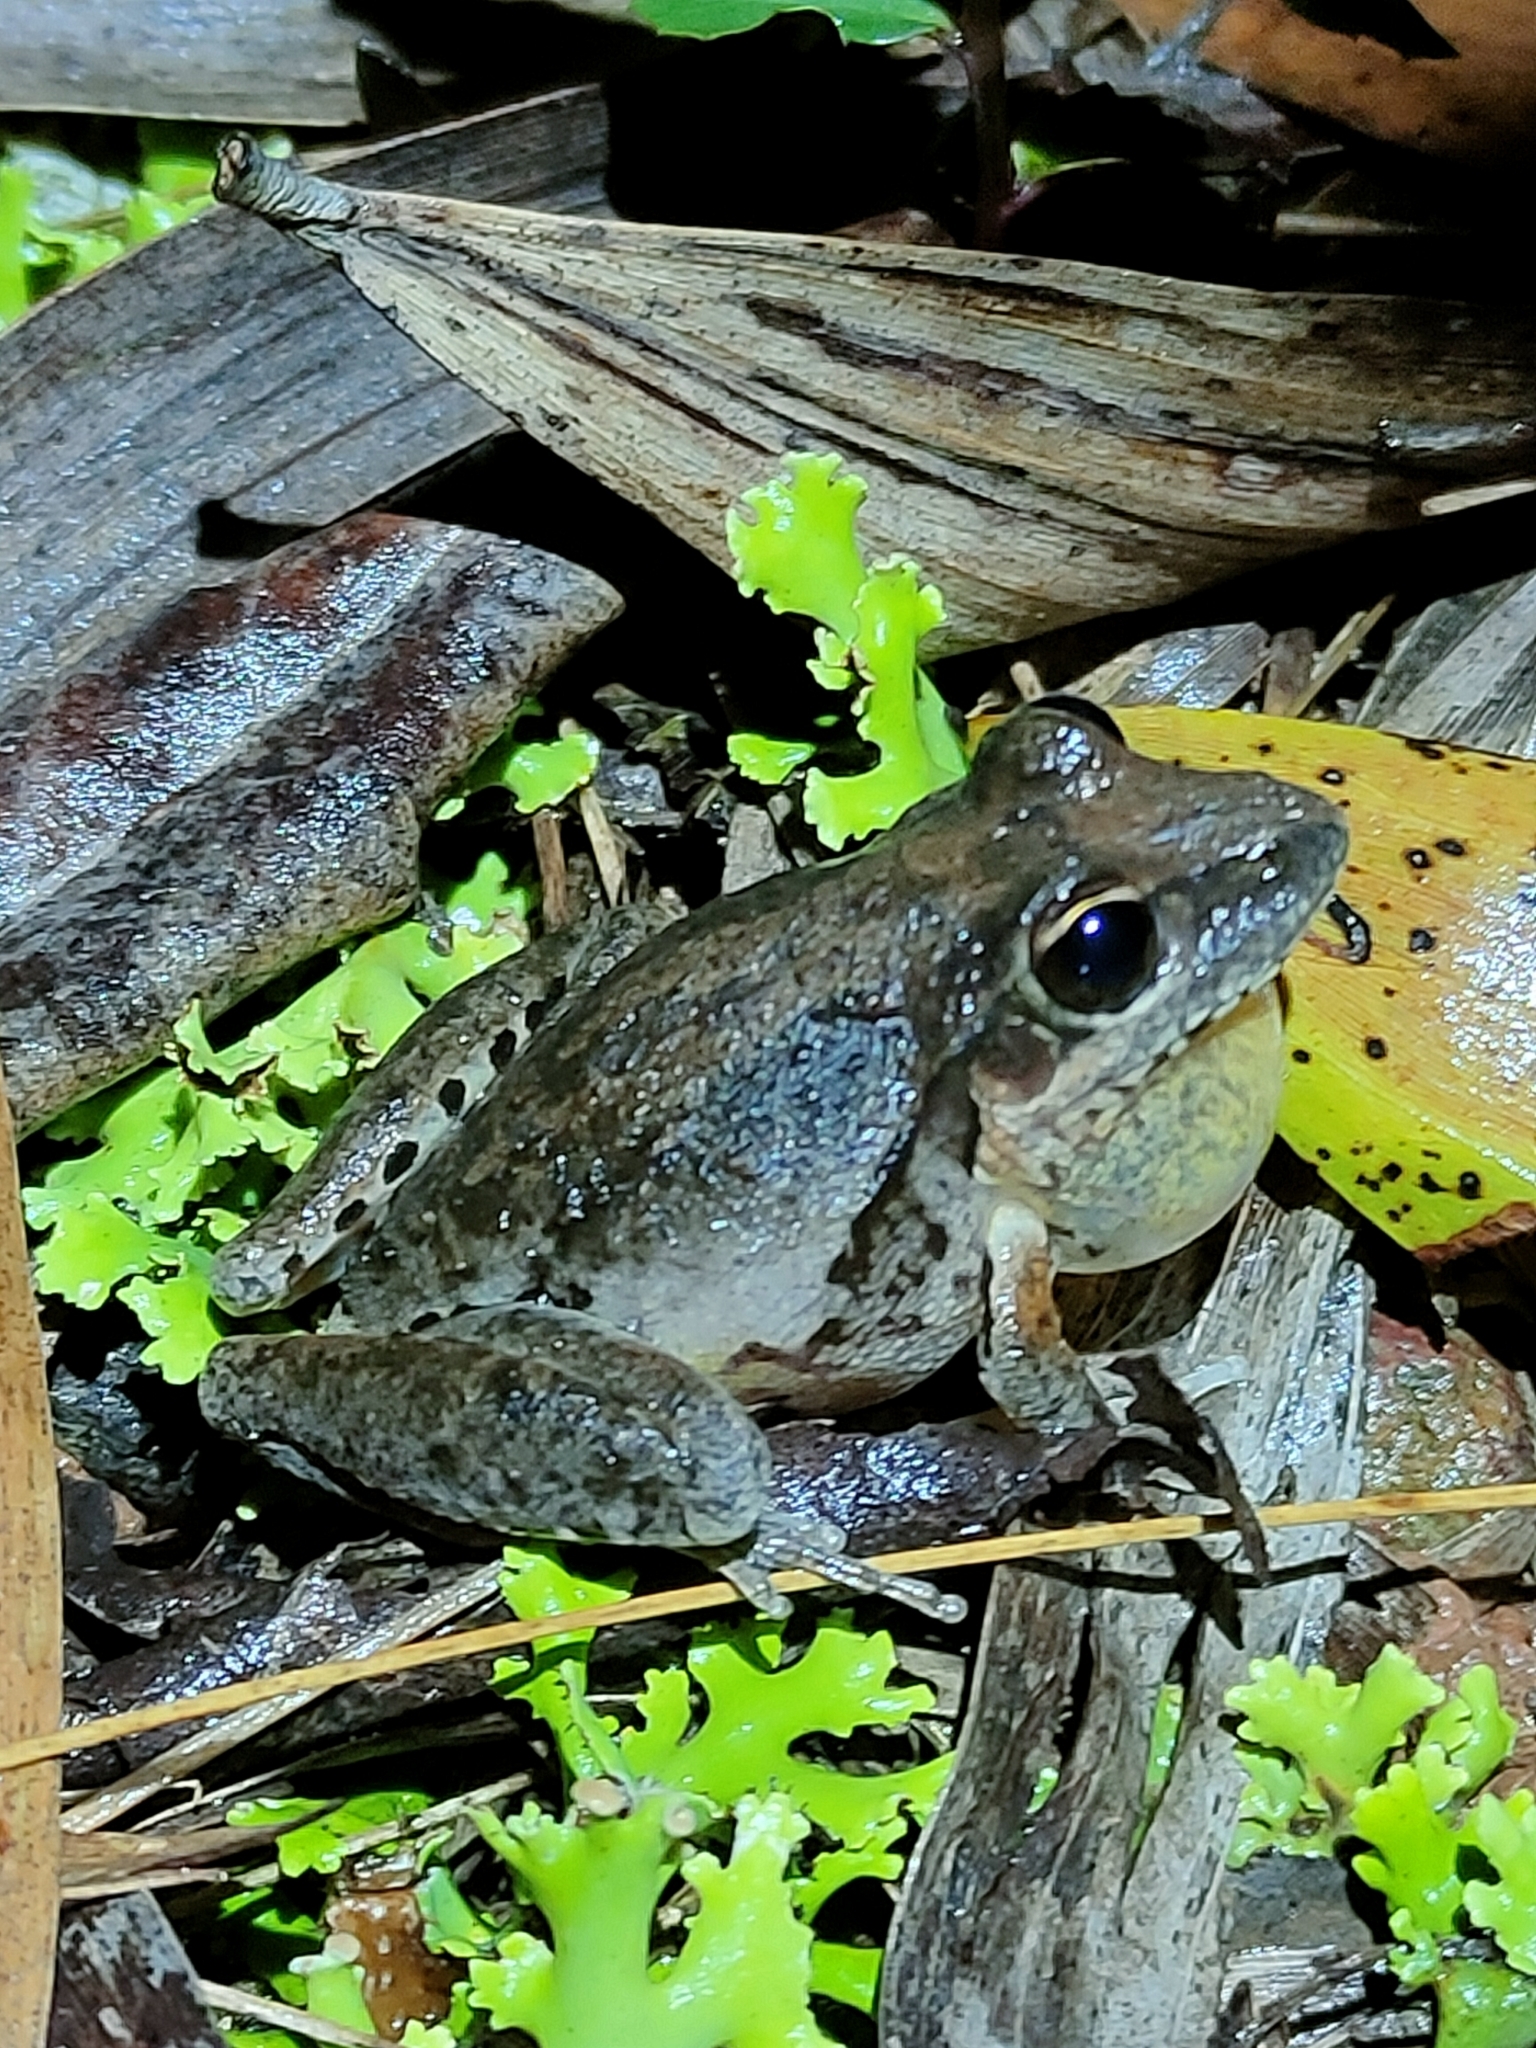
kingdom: Animalia
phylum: Chordata
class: Amphibia
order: Anura
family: Pelodryadidae
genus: Litoria
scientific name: Litoria latopalmata
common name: Broad-palmed rocket frog
